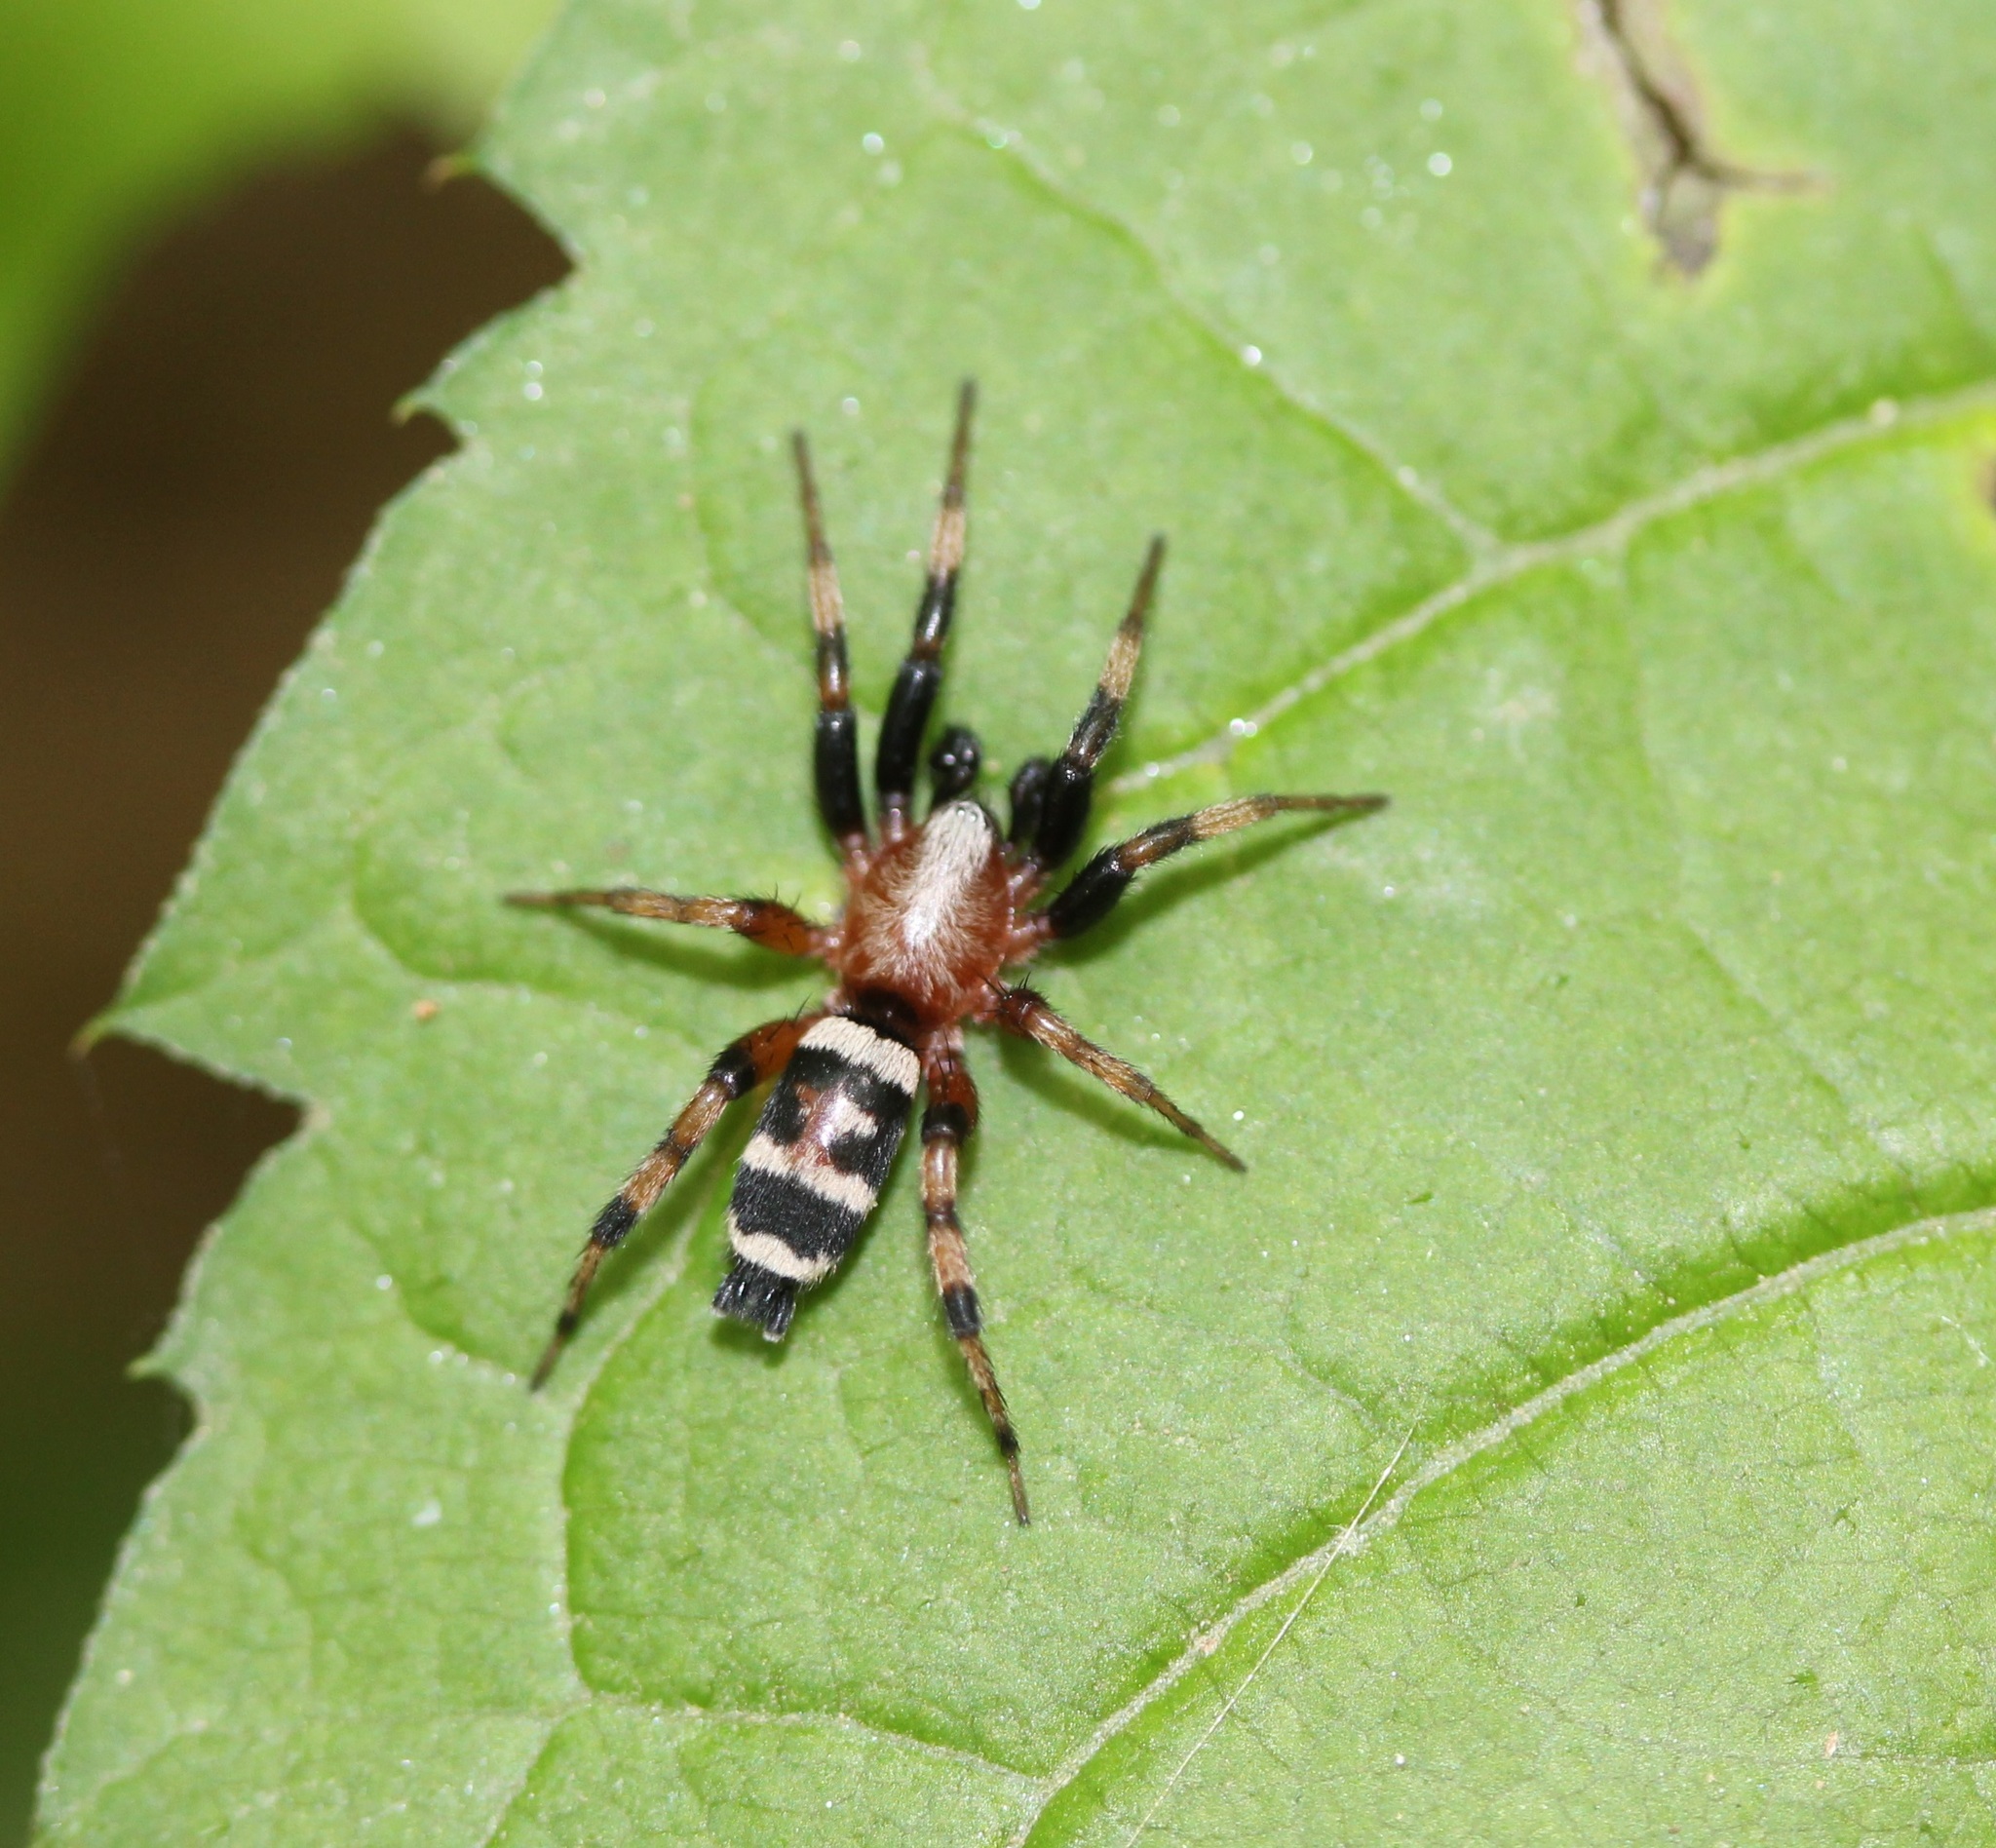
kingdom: Animalia
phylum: Arthropoda
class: Arachnida
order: Araneae
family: Gnaphosidae
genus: Sergiolus
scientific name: Sergiolus capulatus
